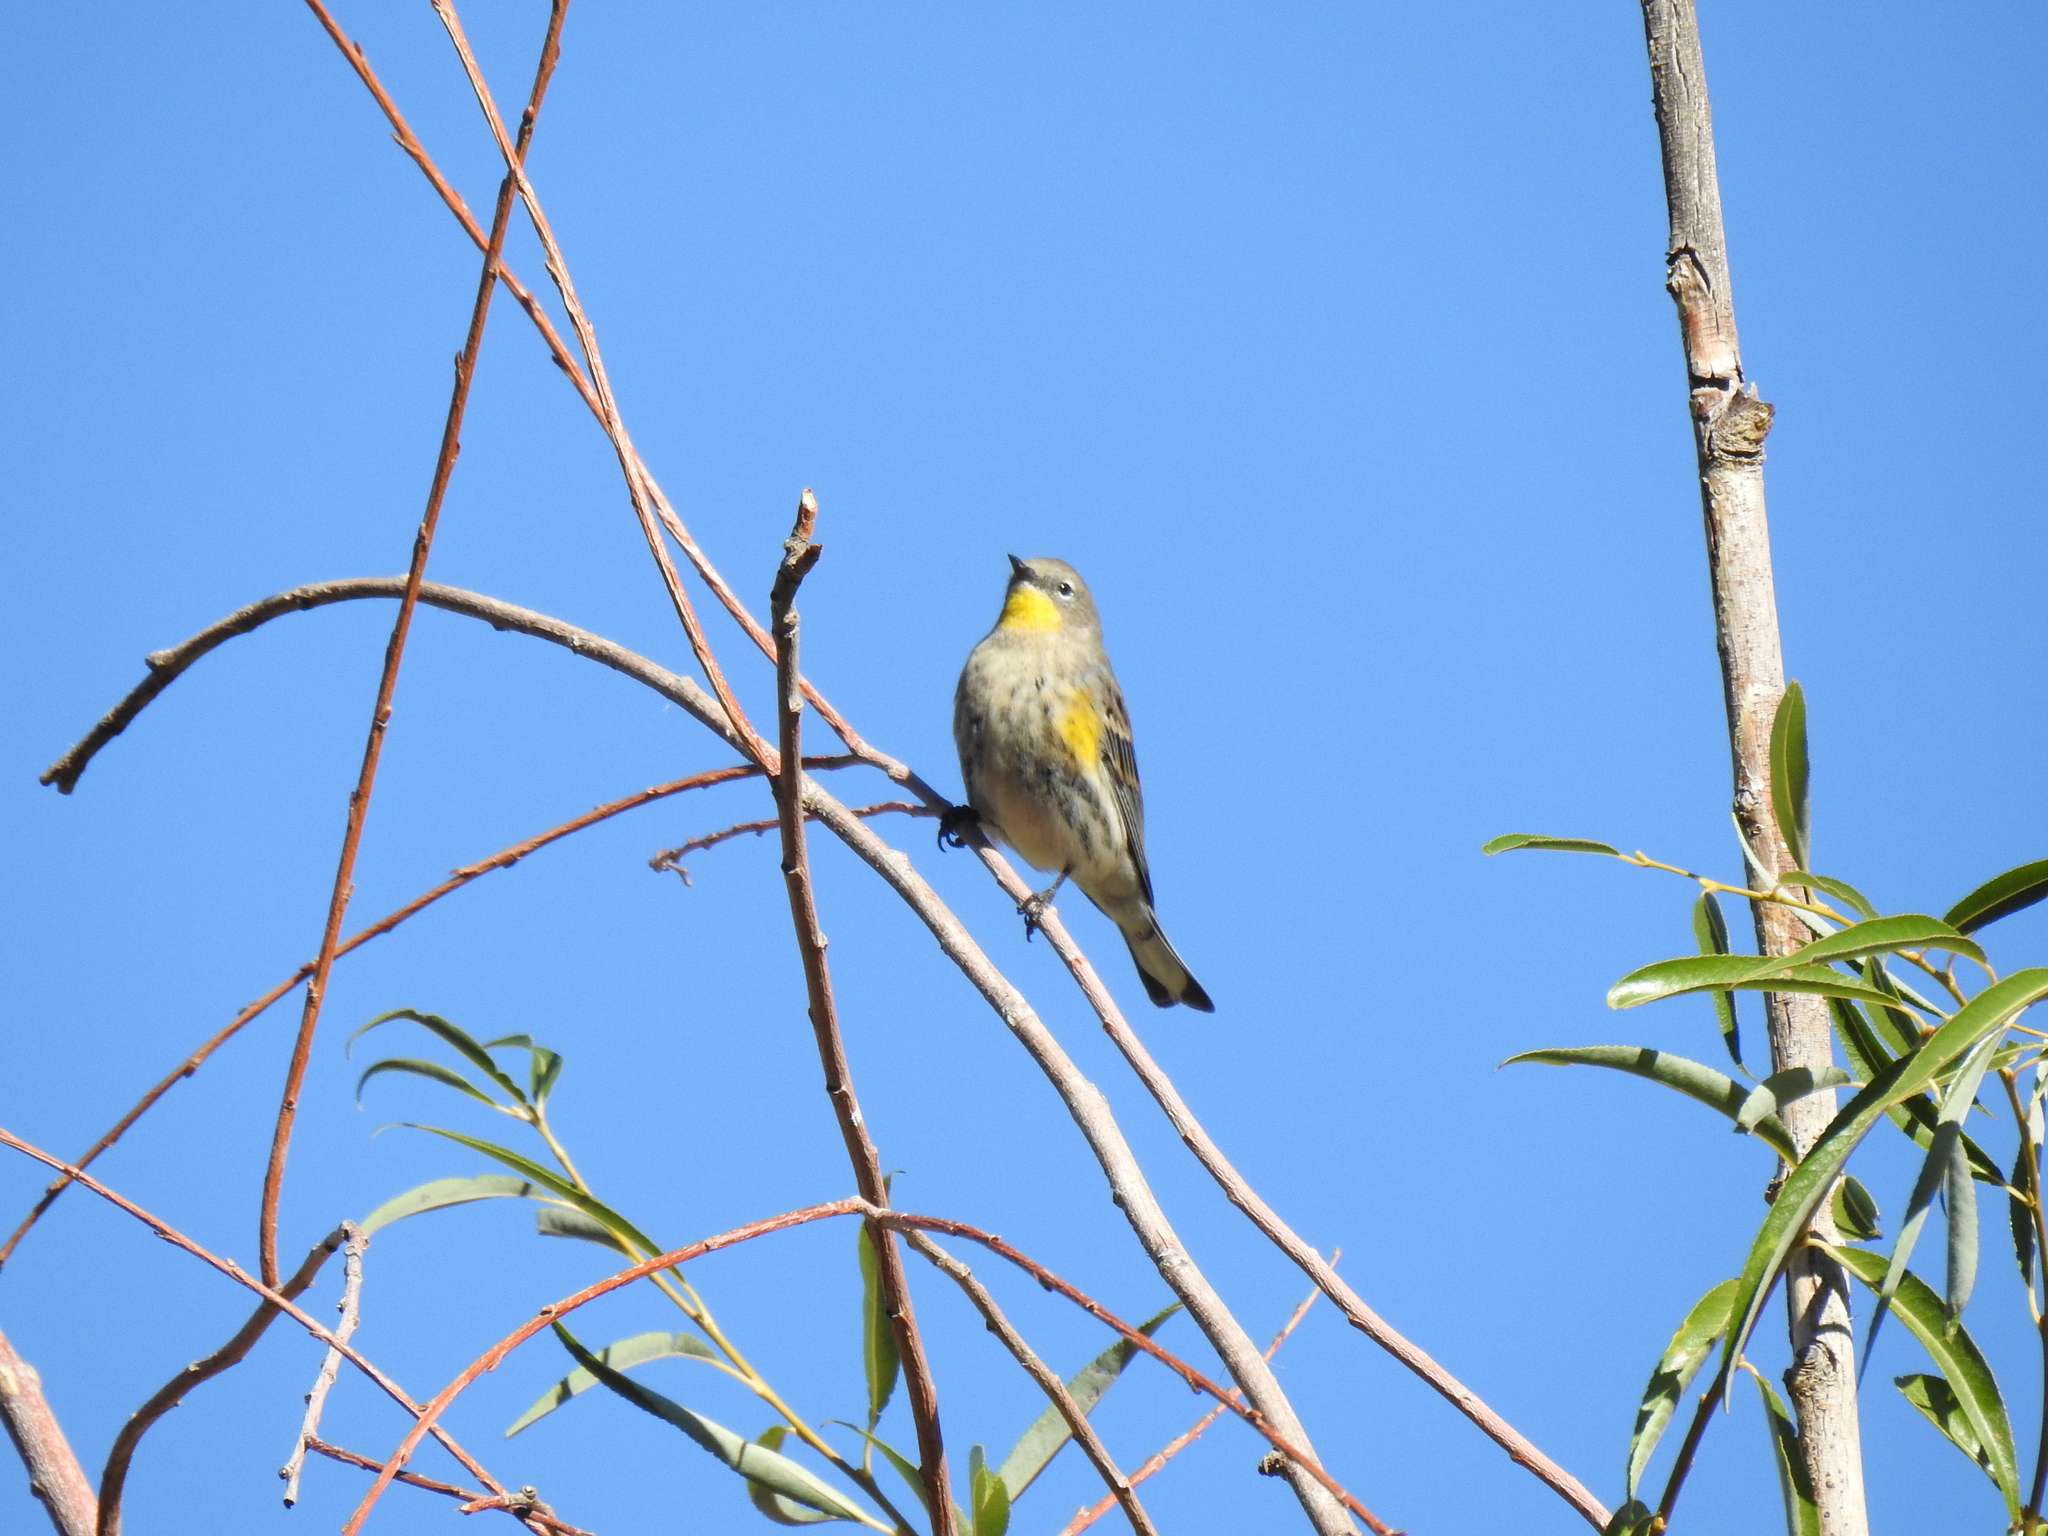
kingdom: Animalia
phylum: Chordata
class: Aves
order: Passeriformes
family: Parulidae
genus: Setophaga
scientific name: Setophaga coronata
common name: Myrtle warbler
